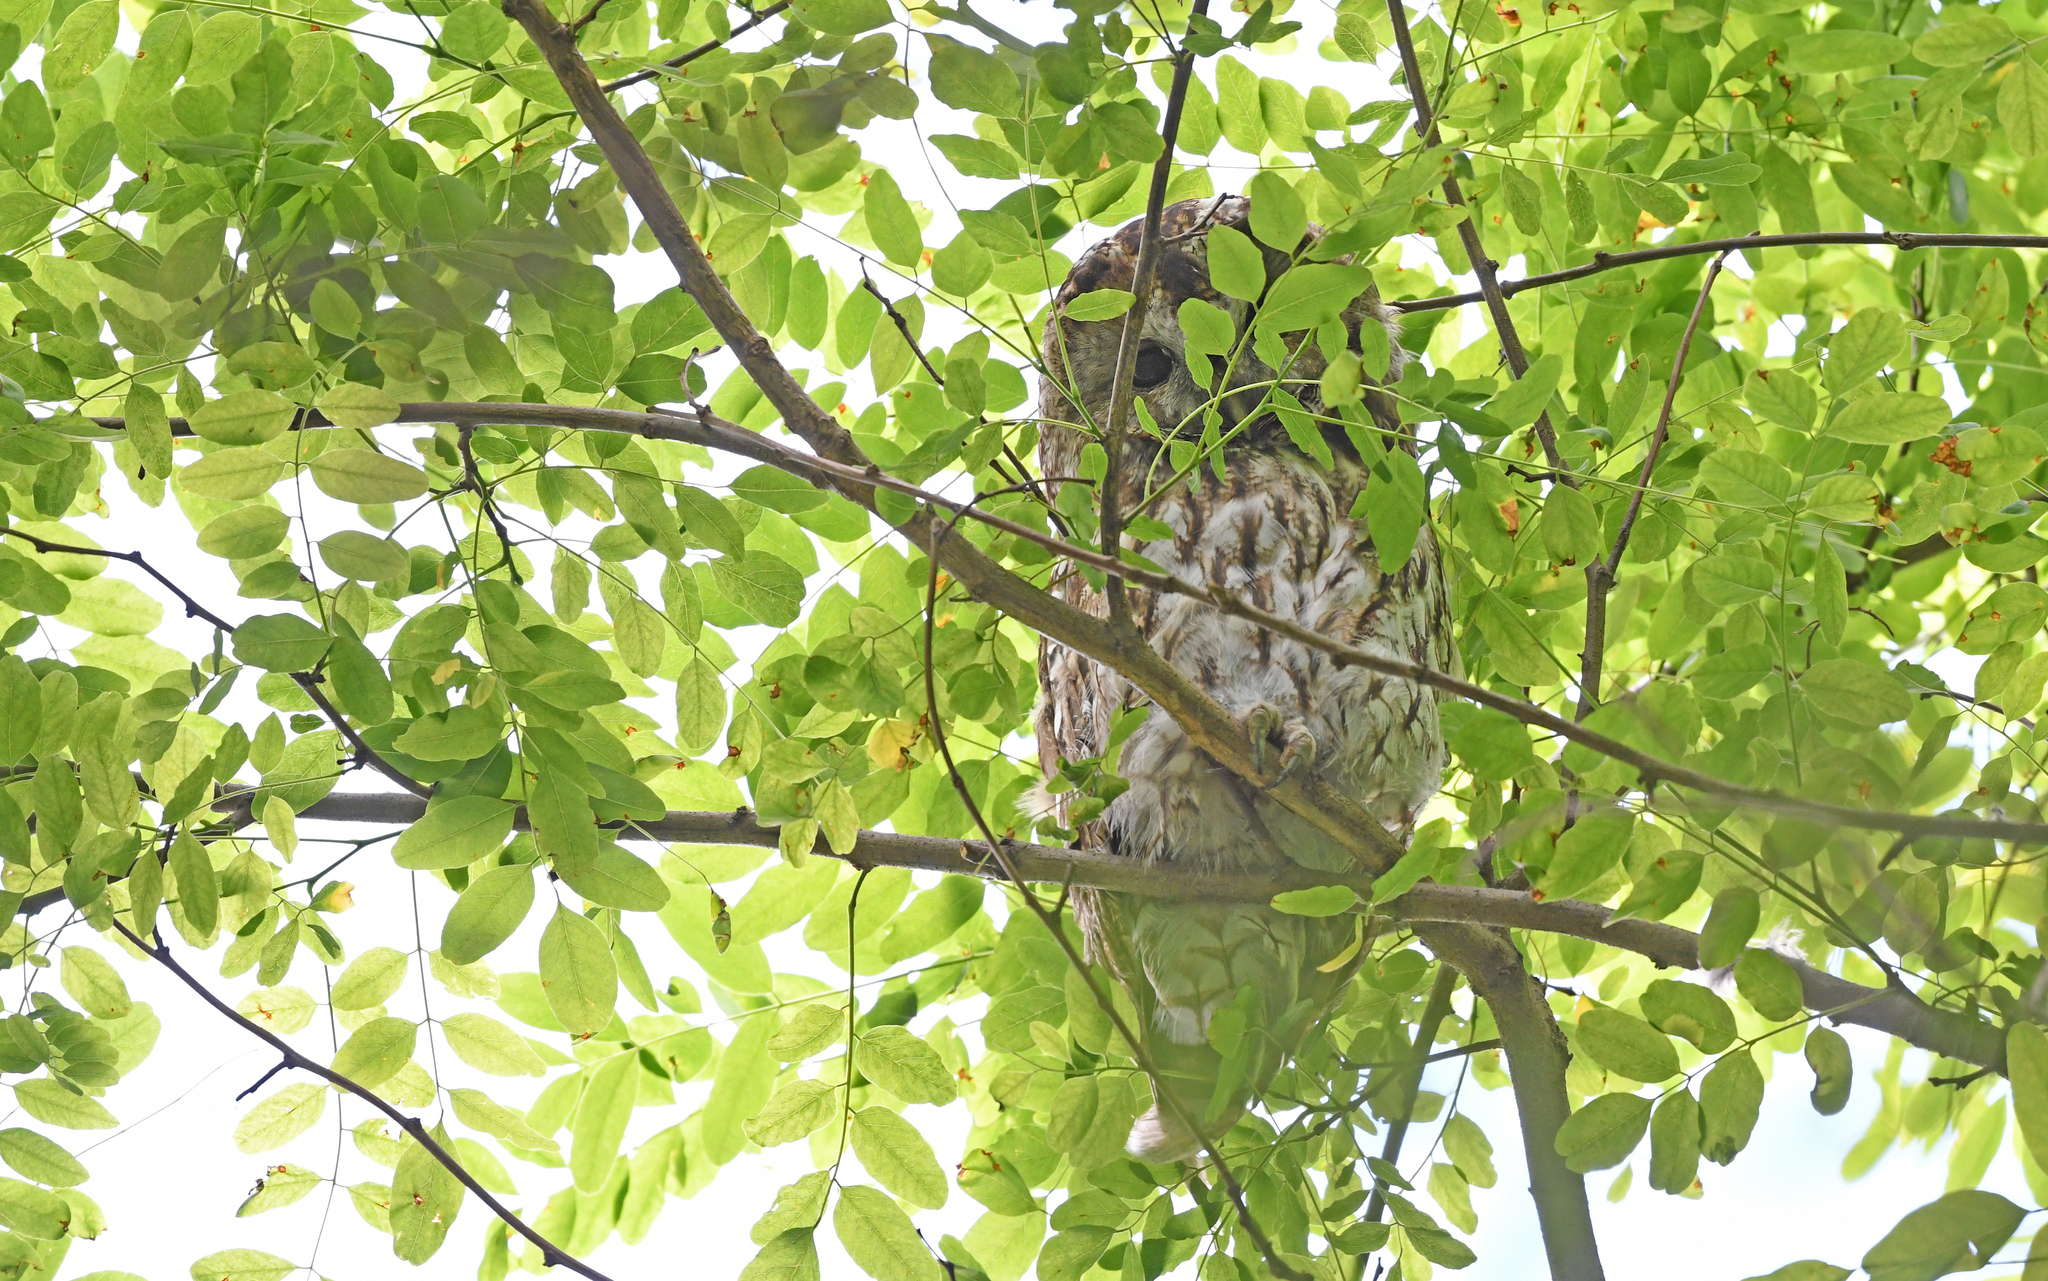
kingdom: Animalia
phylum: Chordata
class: Aves
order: Strigiformes
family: Strigidae
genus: Strix
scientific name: Strix aluco
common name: Tawny owl
